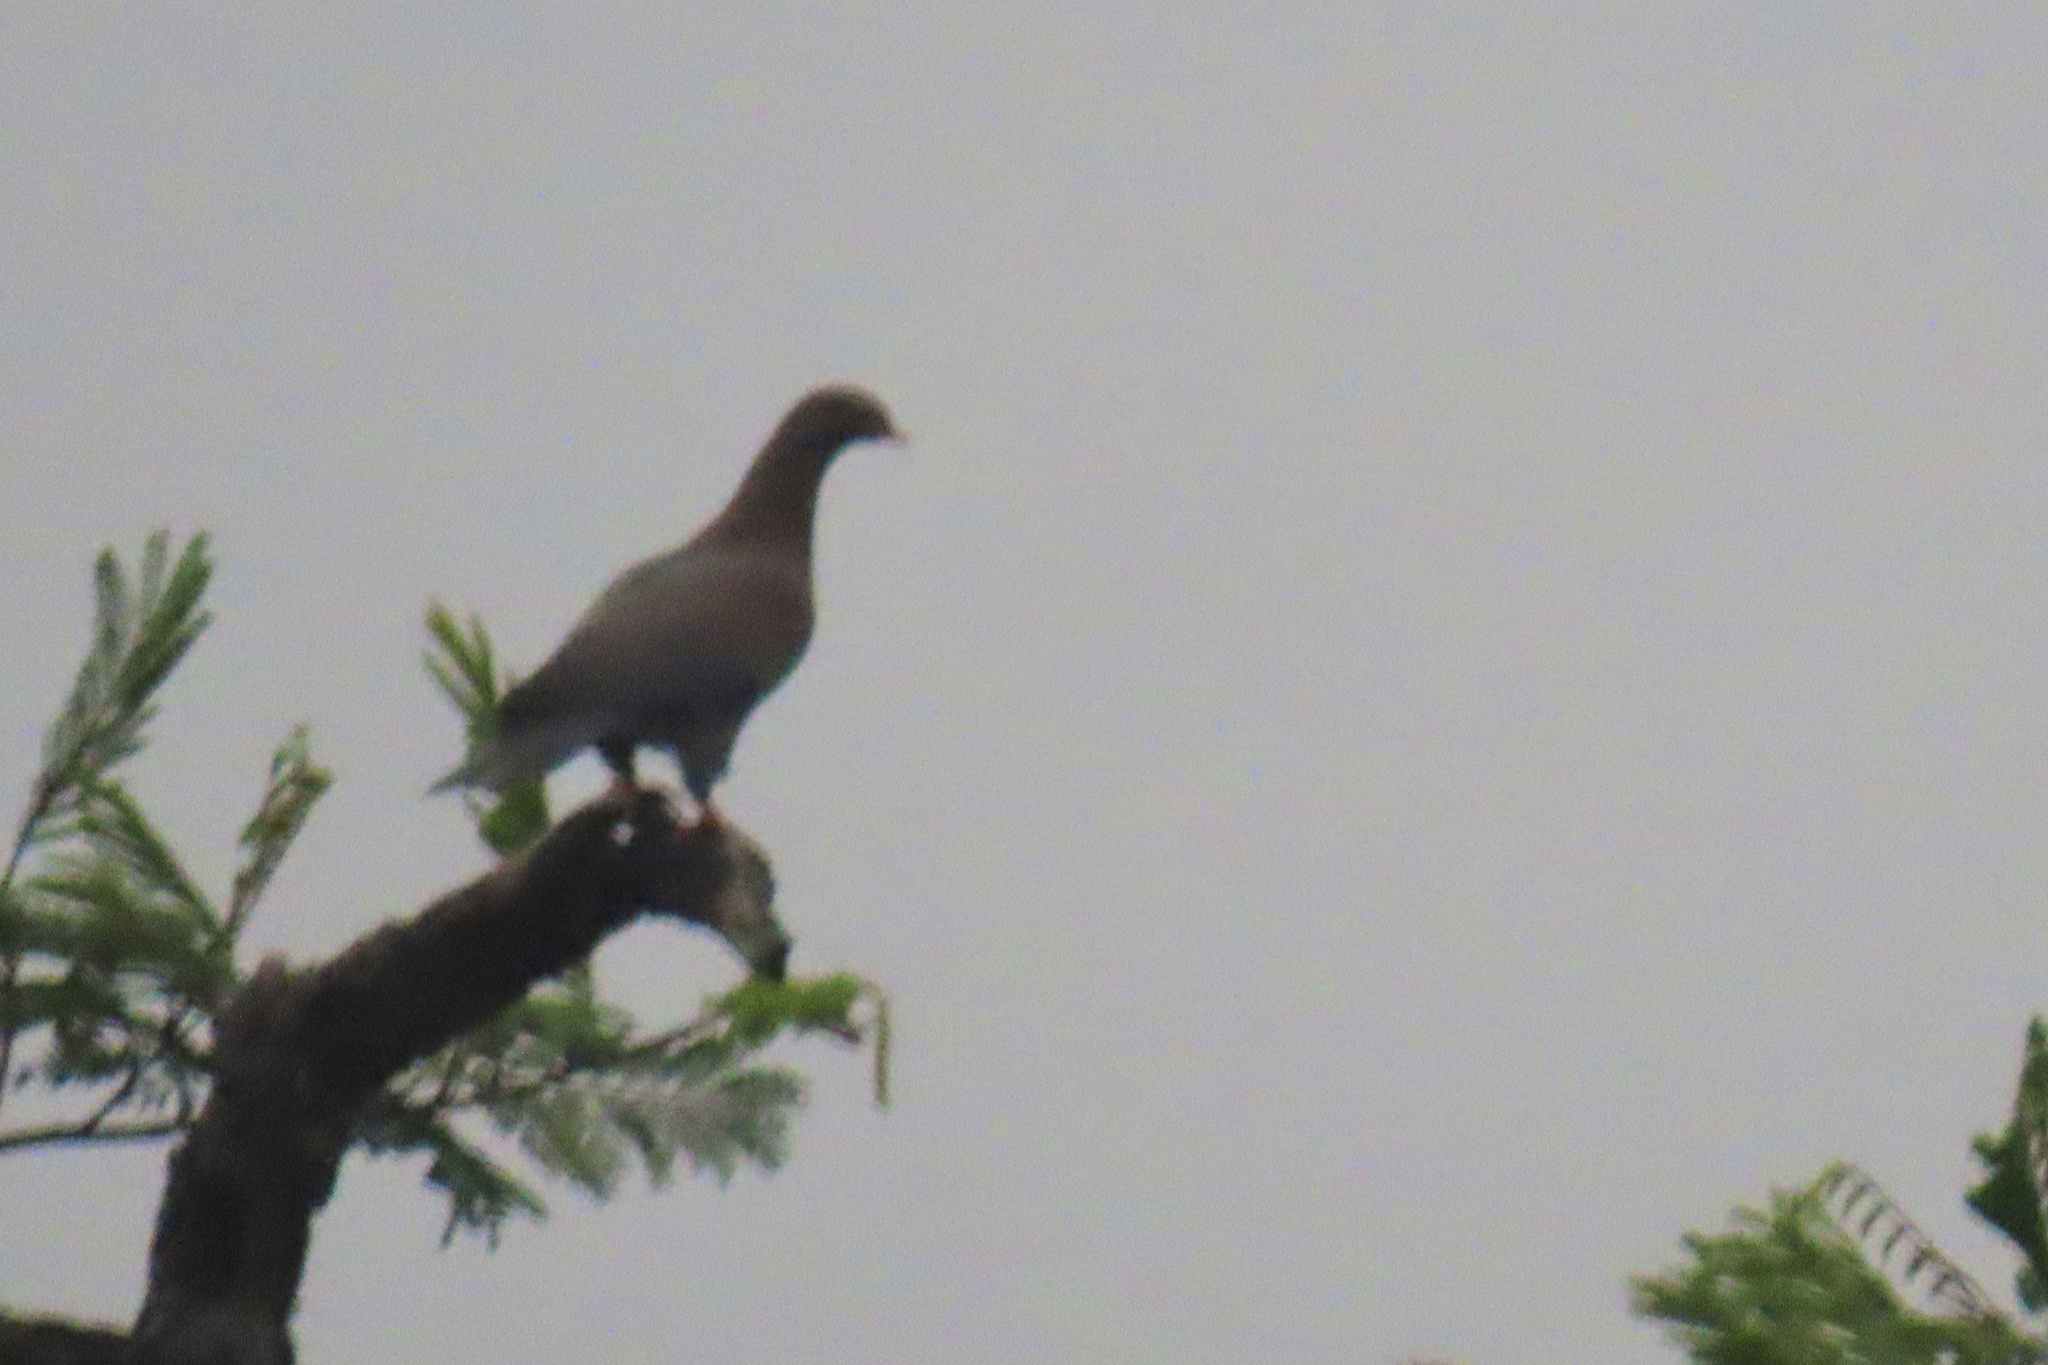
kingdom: Animalia
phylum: Chordata
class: Aves
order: Columbiformes
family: Columbidae
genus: Patagioenas
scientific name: Patagioenas flavirostris
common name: Red-billed pigeon
